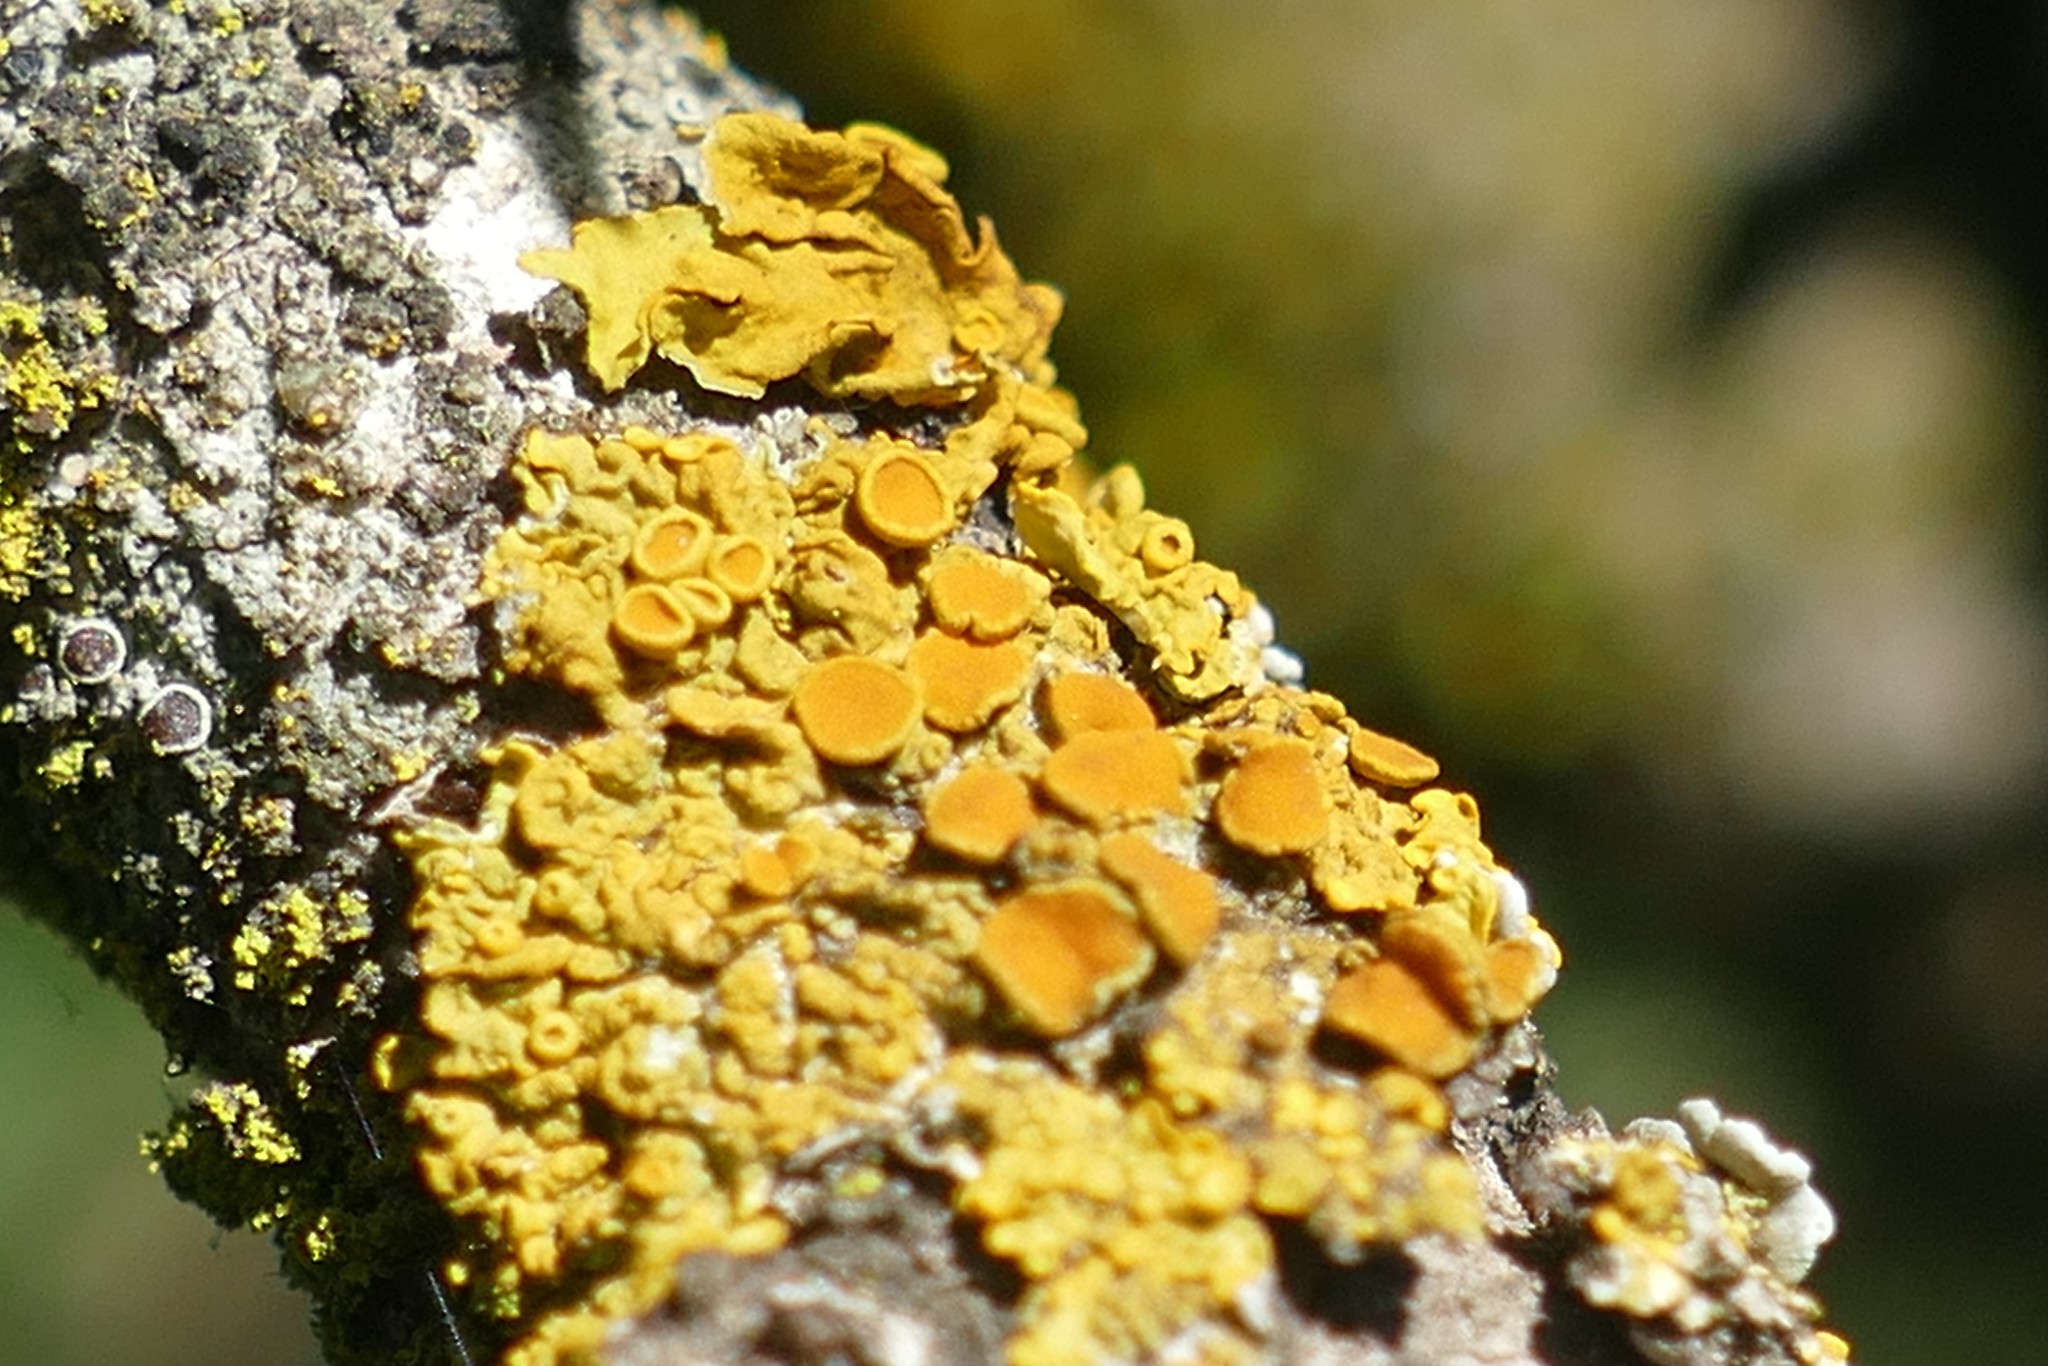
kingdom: Fungi
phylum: Ascomycota
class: Lecanoromycetes
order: Teloschistales
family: Teloschistaceae
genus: Xanthoria
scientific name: Xanthoria parietina
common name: Common orange lichen
